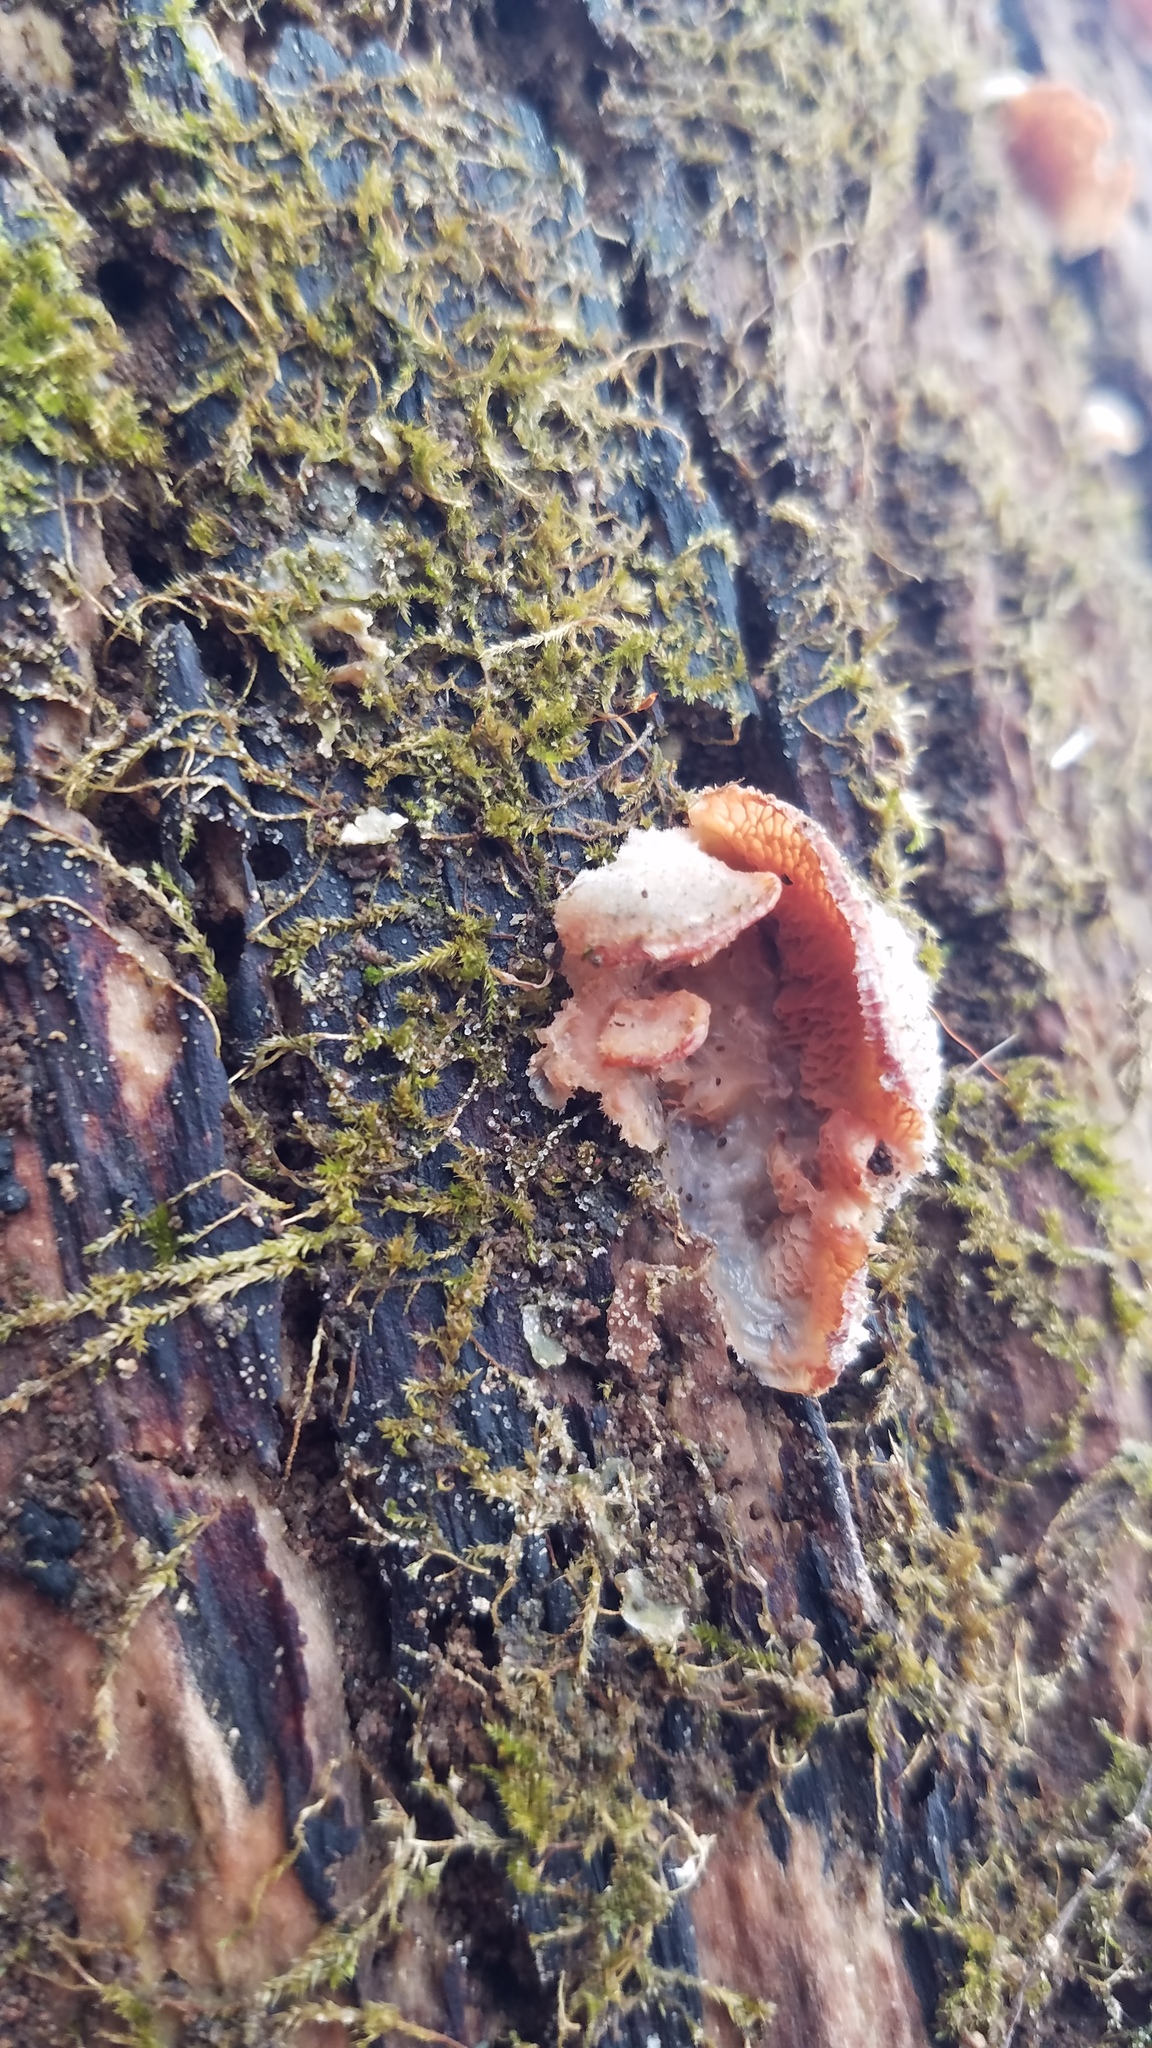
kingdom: Fungi
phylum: Basidiomycota
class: Agaricomycetes
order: Polyporales
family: Meruliaceae
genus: Phlebia
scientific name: Phlebia tremellosa
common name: Jelly rot
